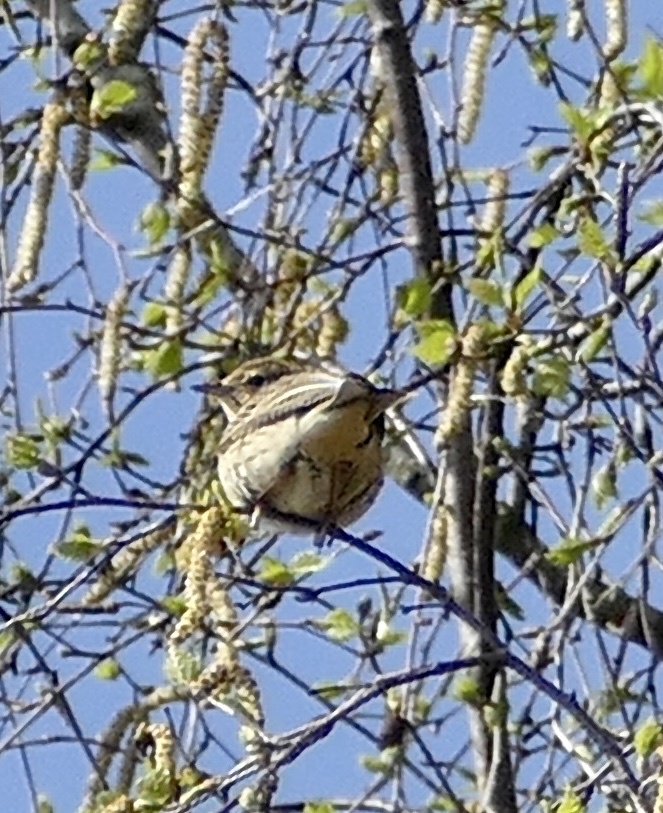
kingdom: Animalia
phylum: Chordata
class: Aves
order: Passeriformes
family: Motacillidae
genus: Anthus
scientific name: Anthus trivialis
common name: Tree pipit
